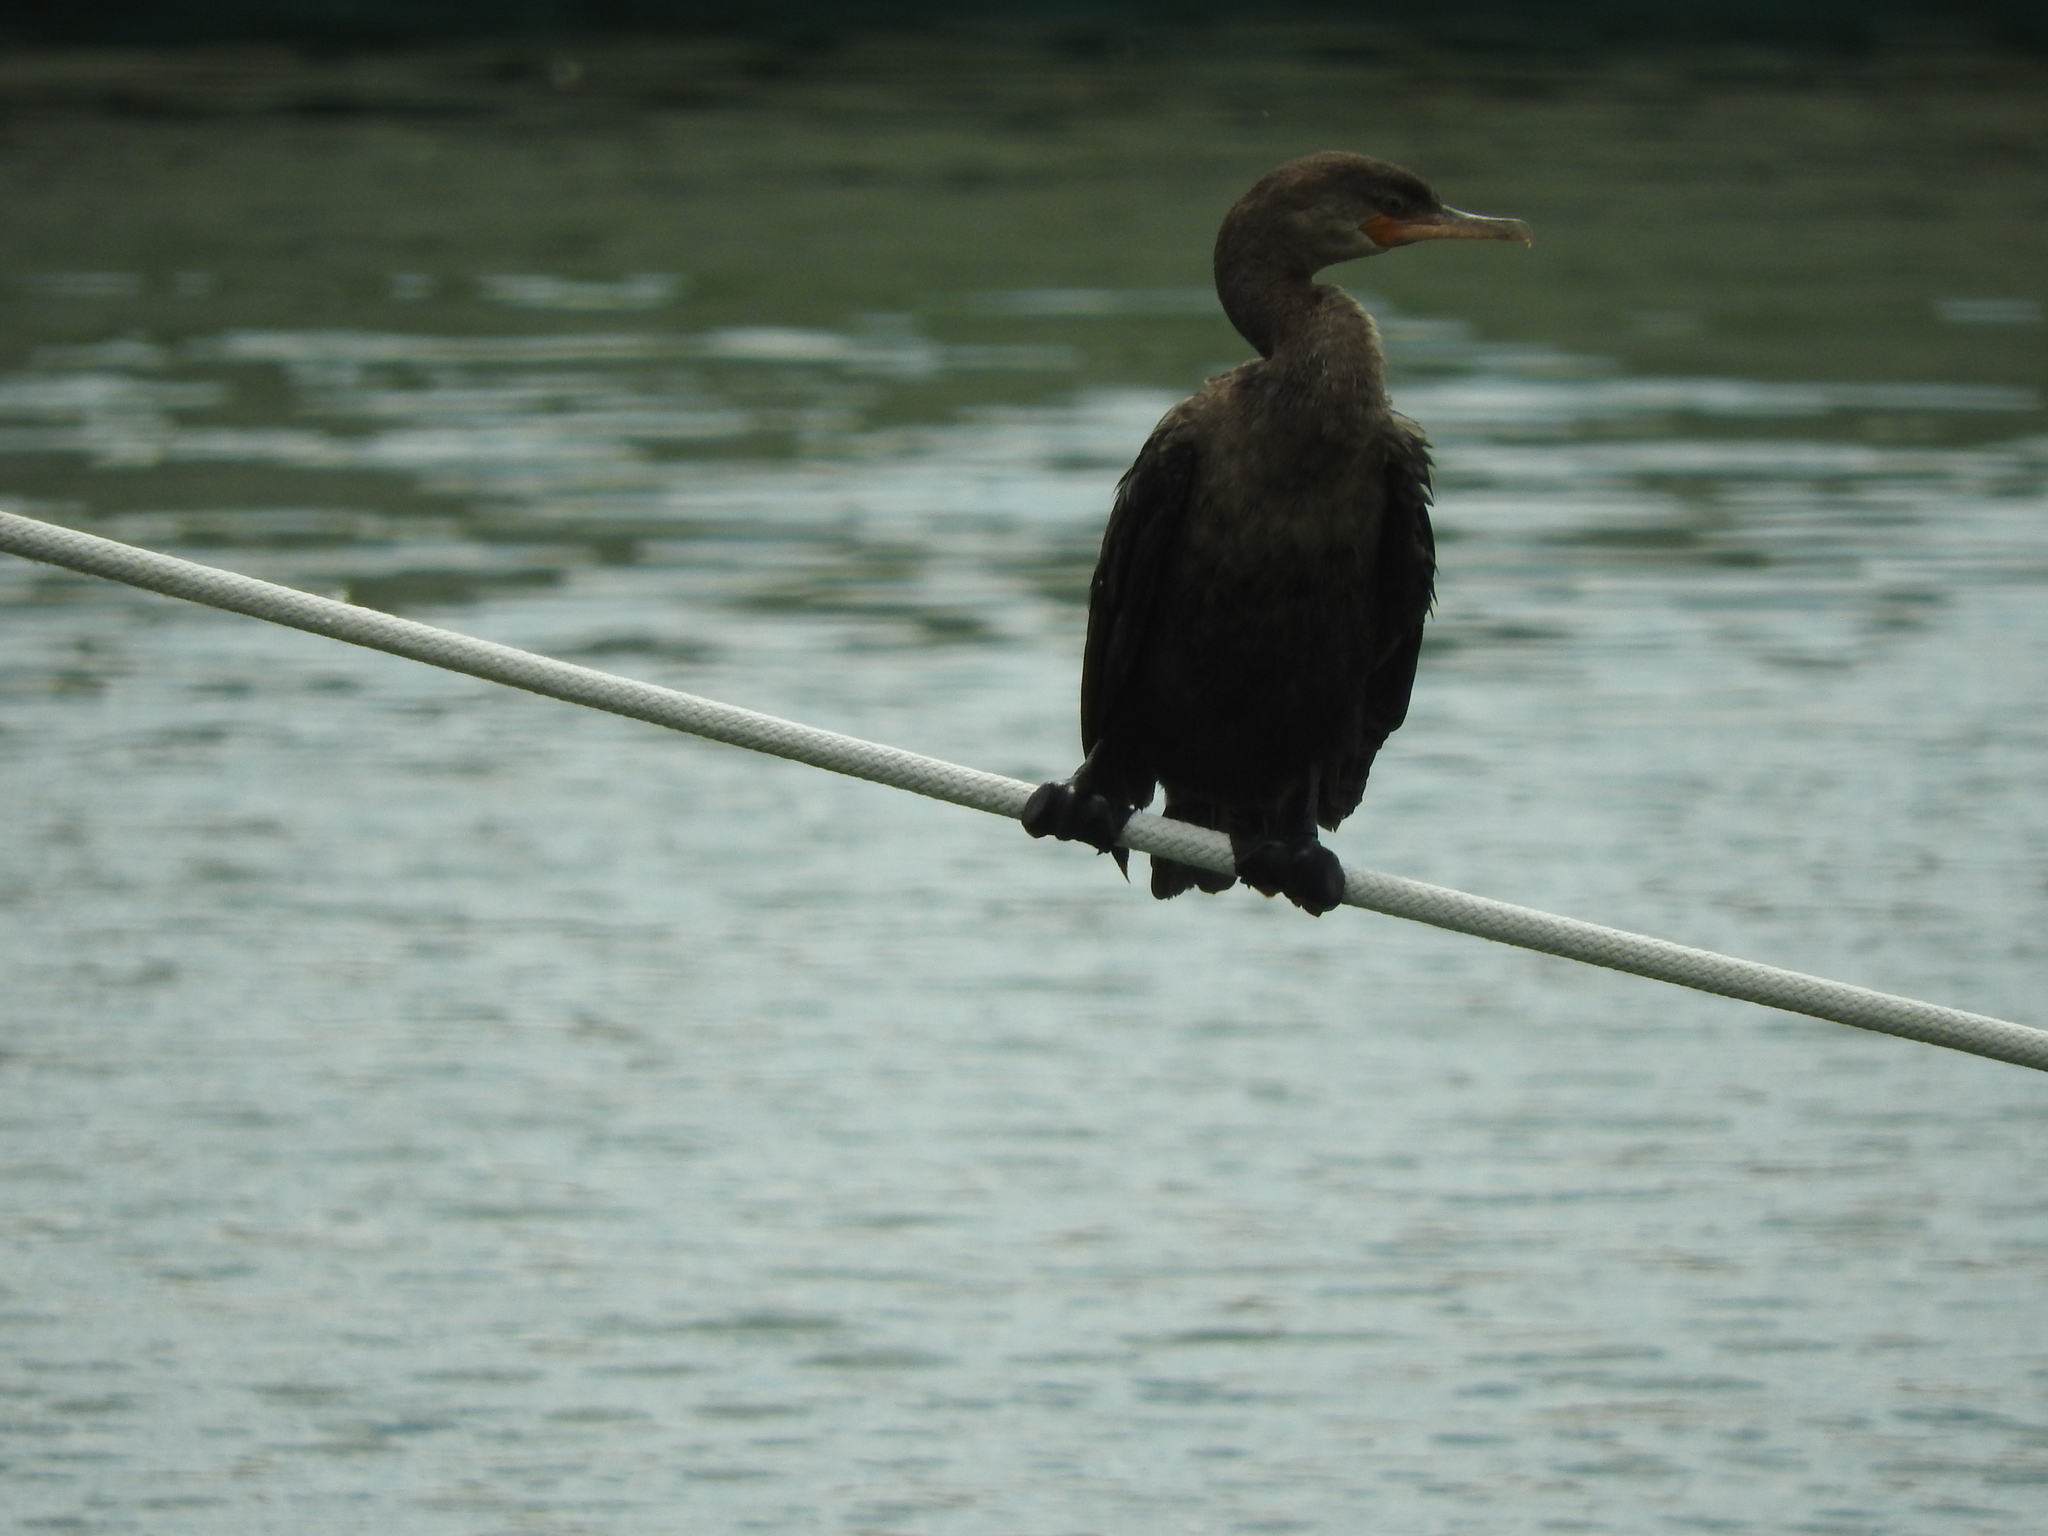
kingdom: Animalia
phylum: Chordata
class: Aves
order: Suliformes
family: Phalacrocoracidae
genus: Phalacrocorax
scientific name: Phalacrocorax brasilianus
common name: Neotropic cormorant
